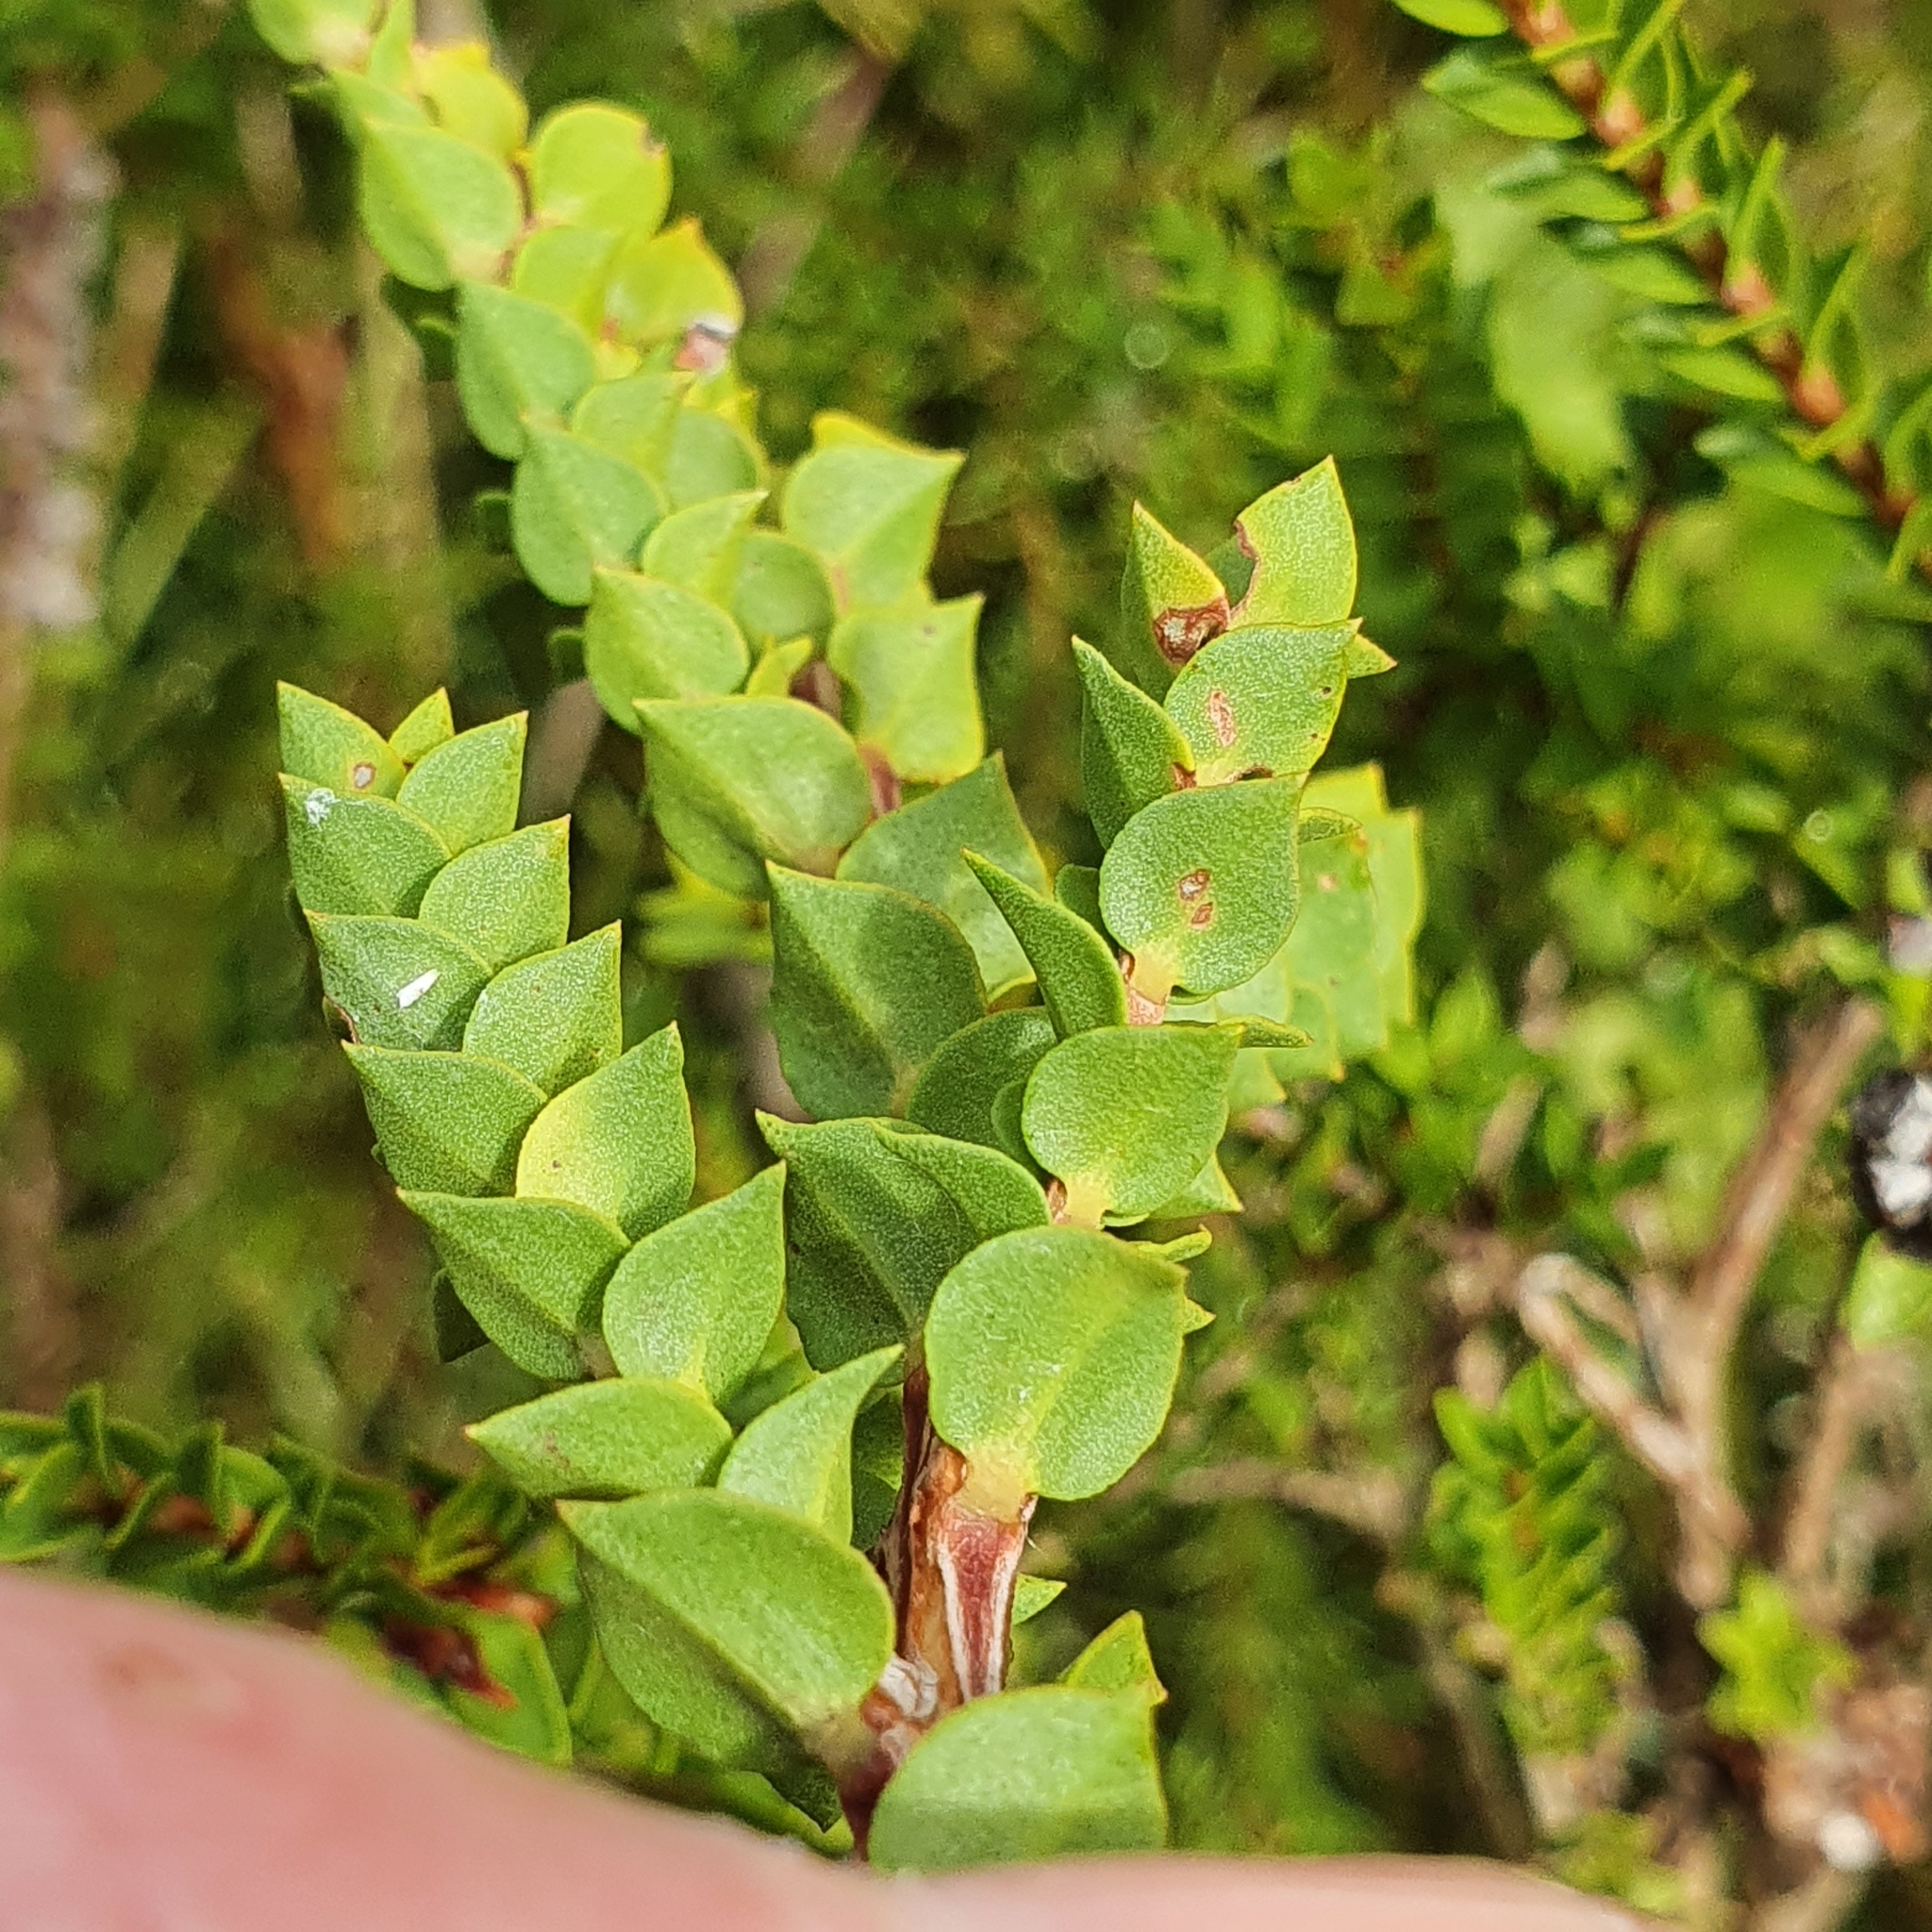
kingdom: Plantae
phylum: Tracheophyta
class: Magnoliopsida
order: Myrtales
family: Myrtaceae
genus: Melaleuca
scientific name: Melaleuca squarrosa
